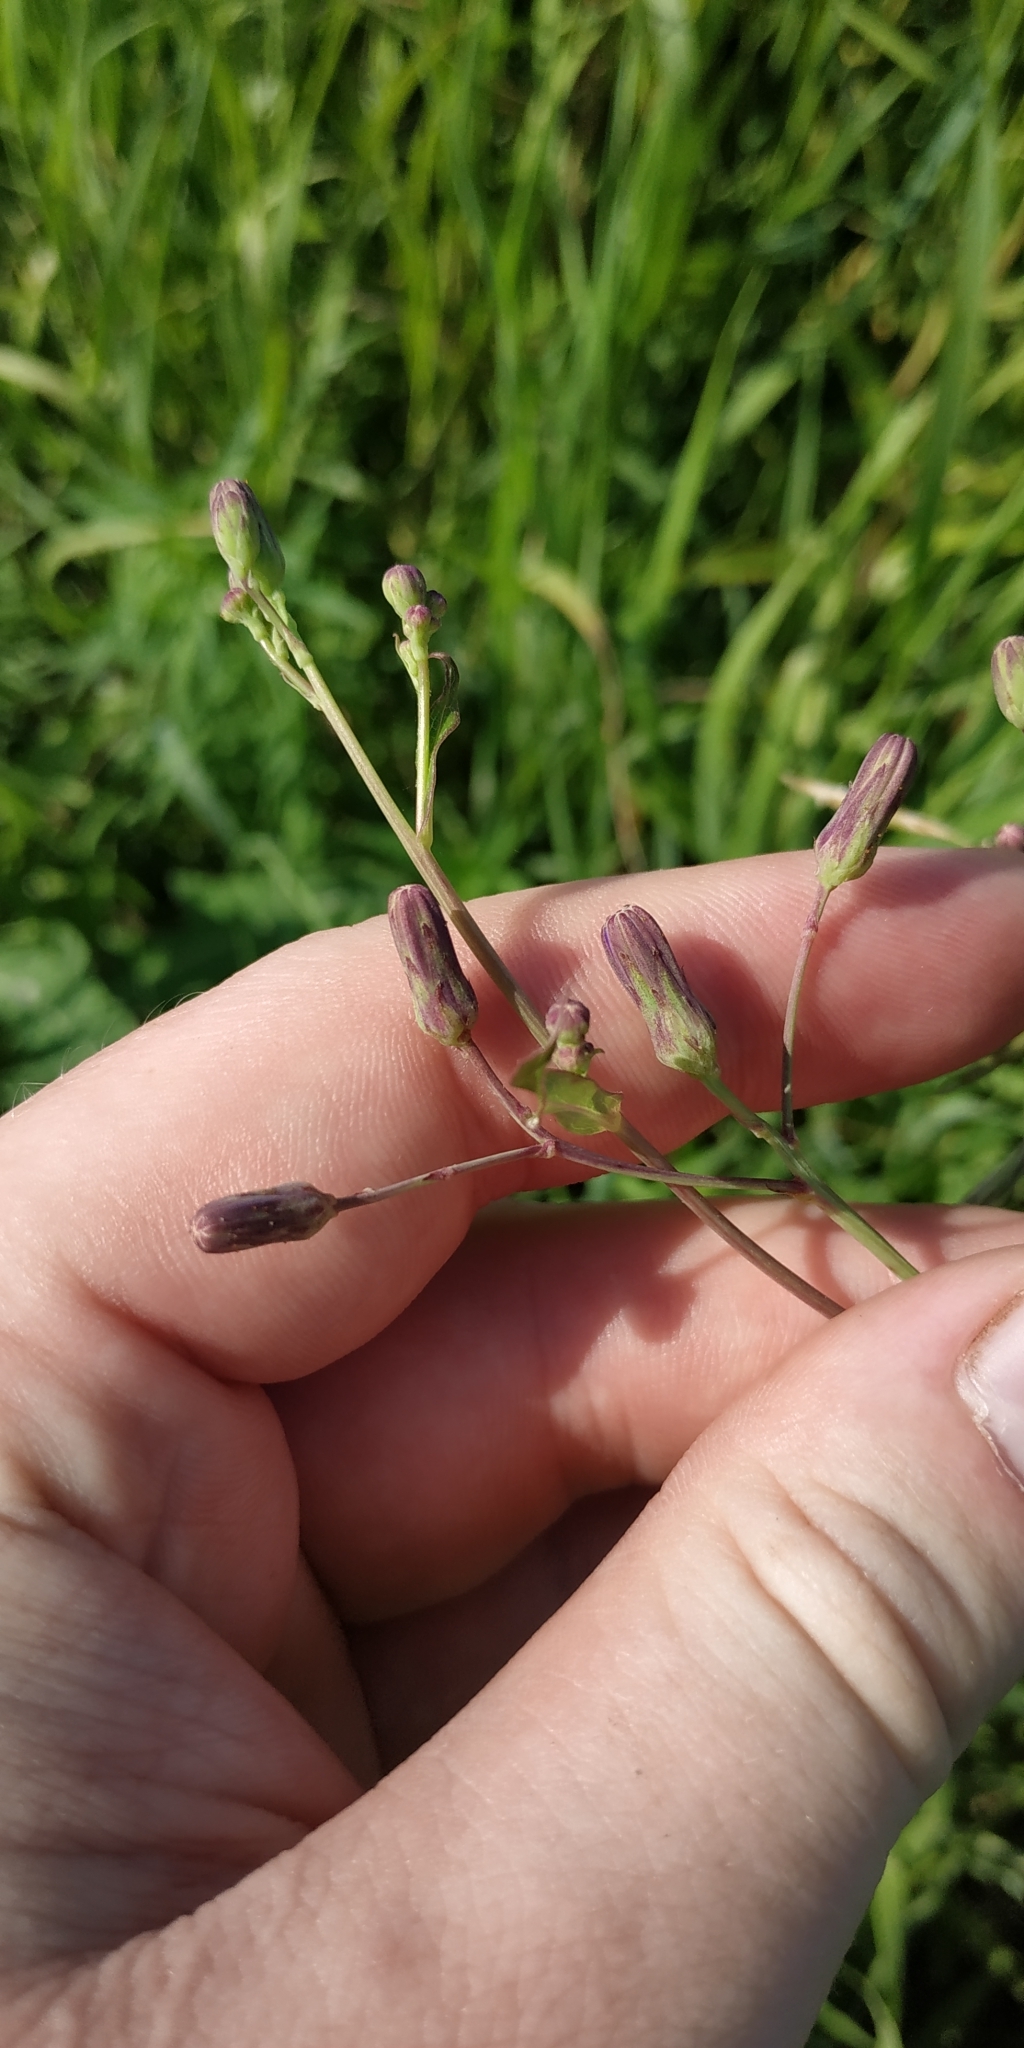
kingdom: Plantae
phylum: Tracheophyta
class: Magnoliopsida
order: Asterales
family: Asteraceae
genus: Lactuca
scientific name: Lactuca sibirica
